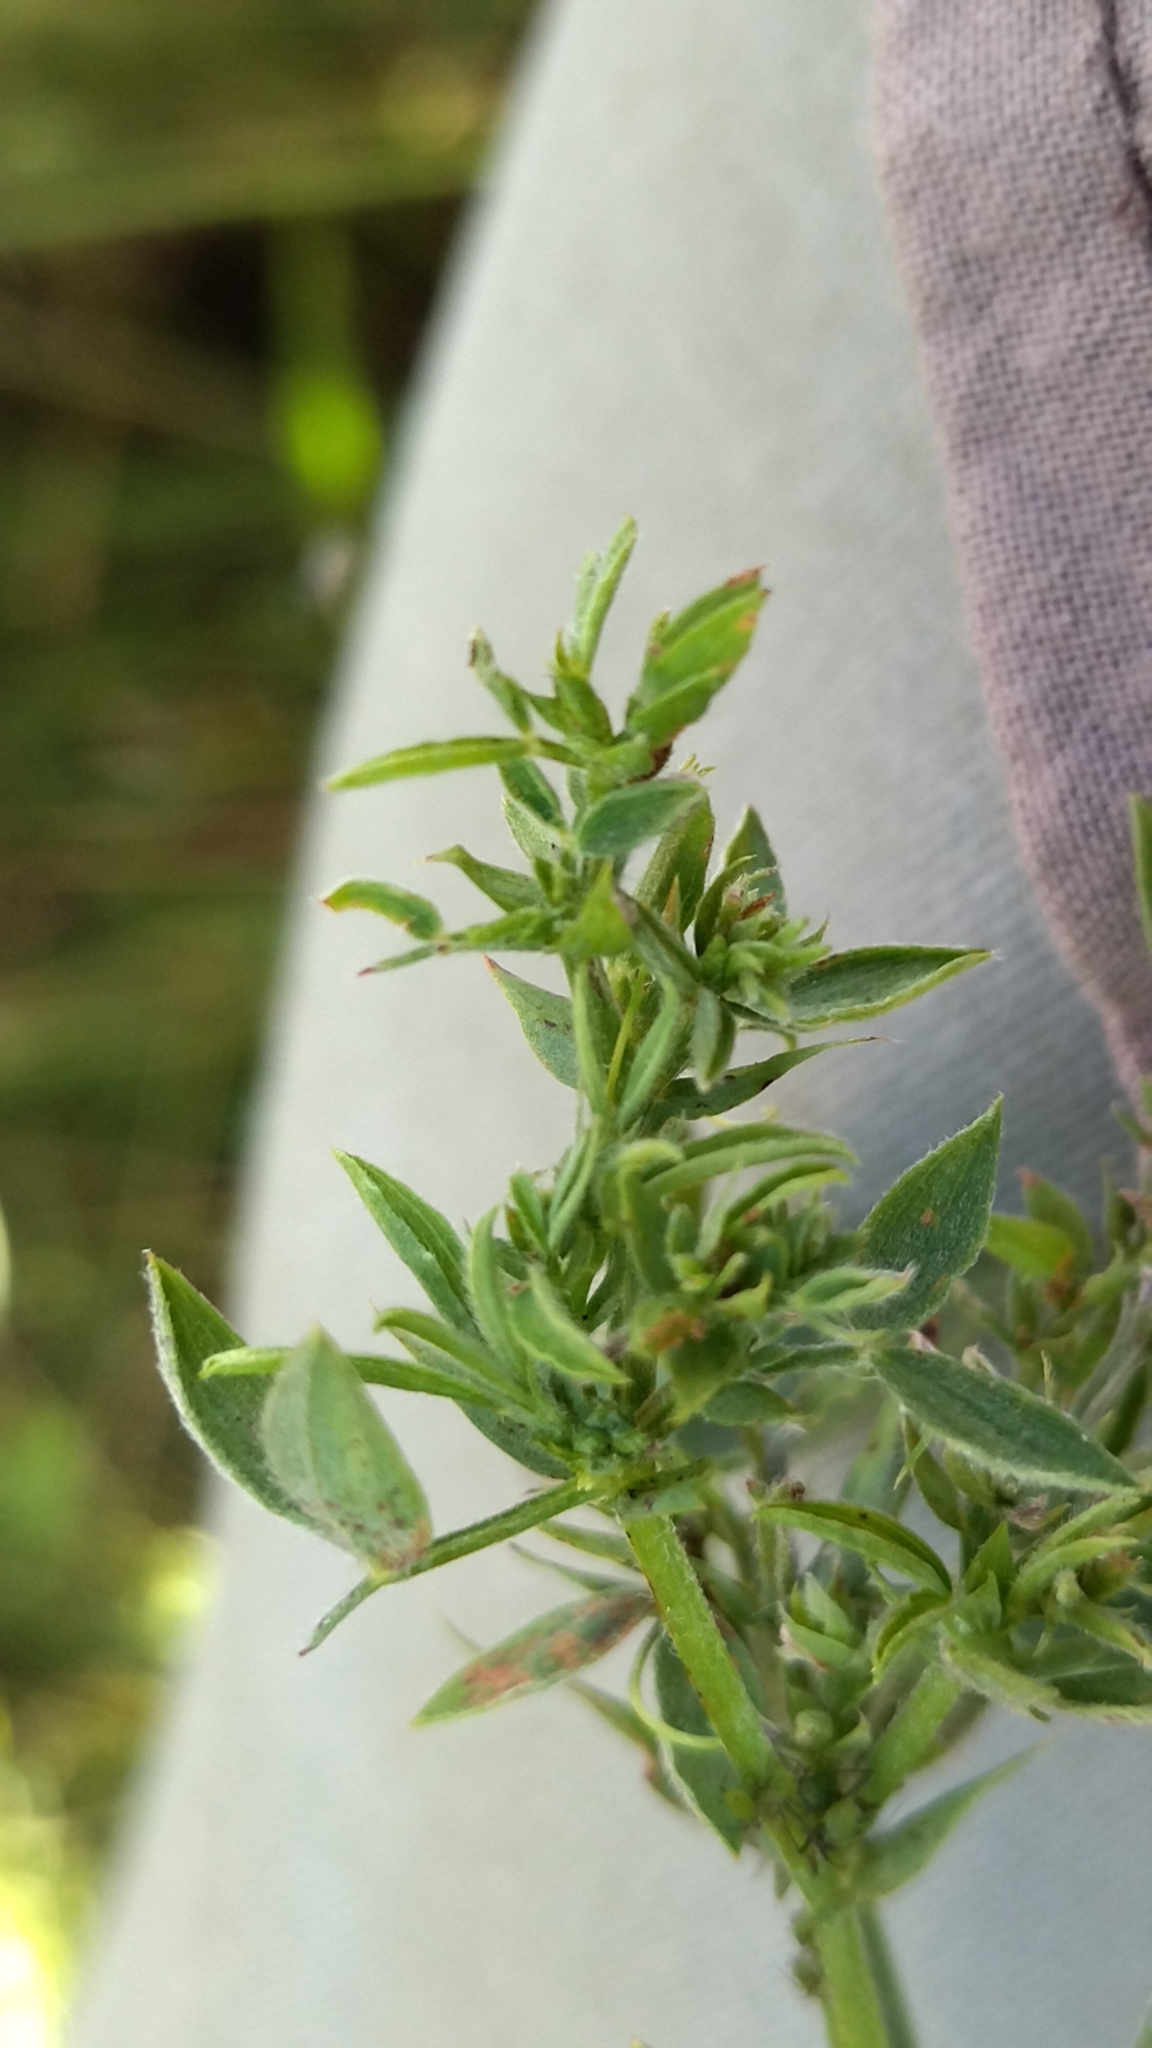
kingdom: Plantae
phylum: Tracheophyta
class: Magnoliopsida
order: Fabales
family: Fabaceae
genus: Lathyrus
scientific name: Lathyrus pratensis
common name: Meadow vetchling
